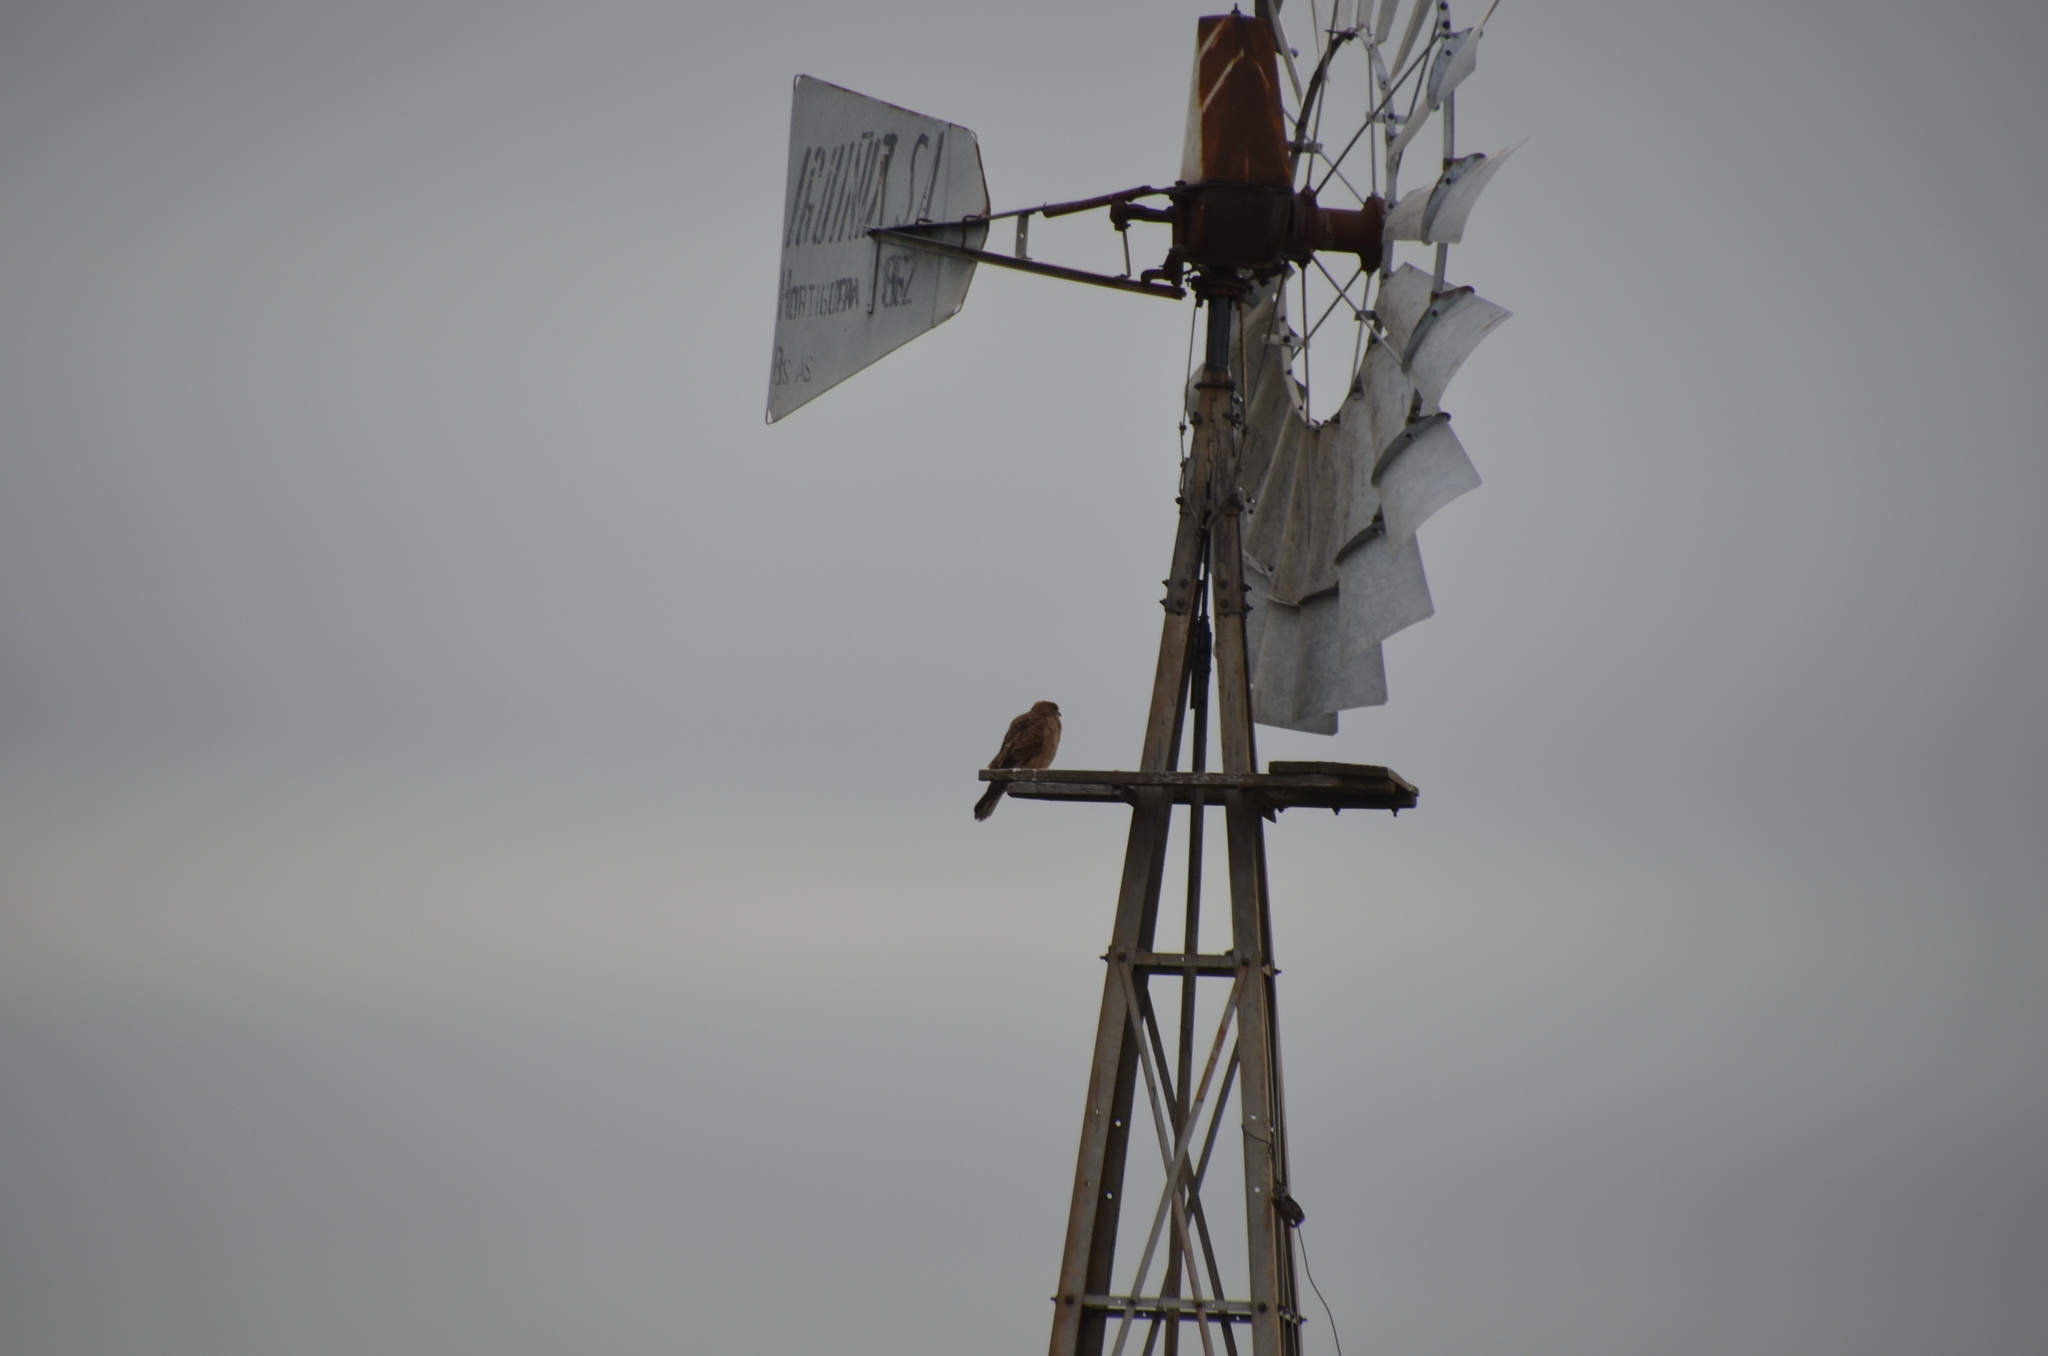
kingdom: Animalia
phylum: Chordata
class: Aves
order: Falconiformes
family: Falconidae
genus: Daptrius
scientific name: Daptrius
